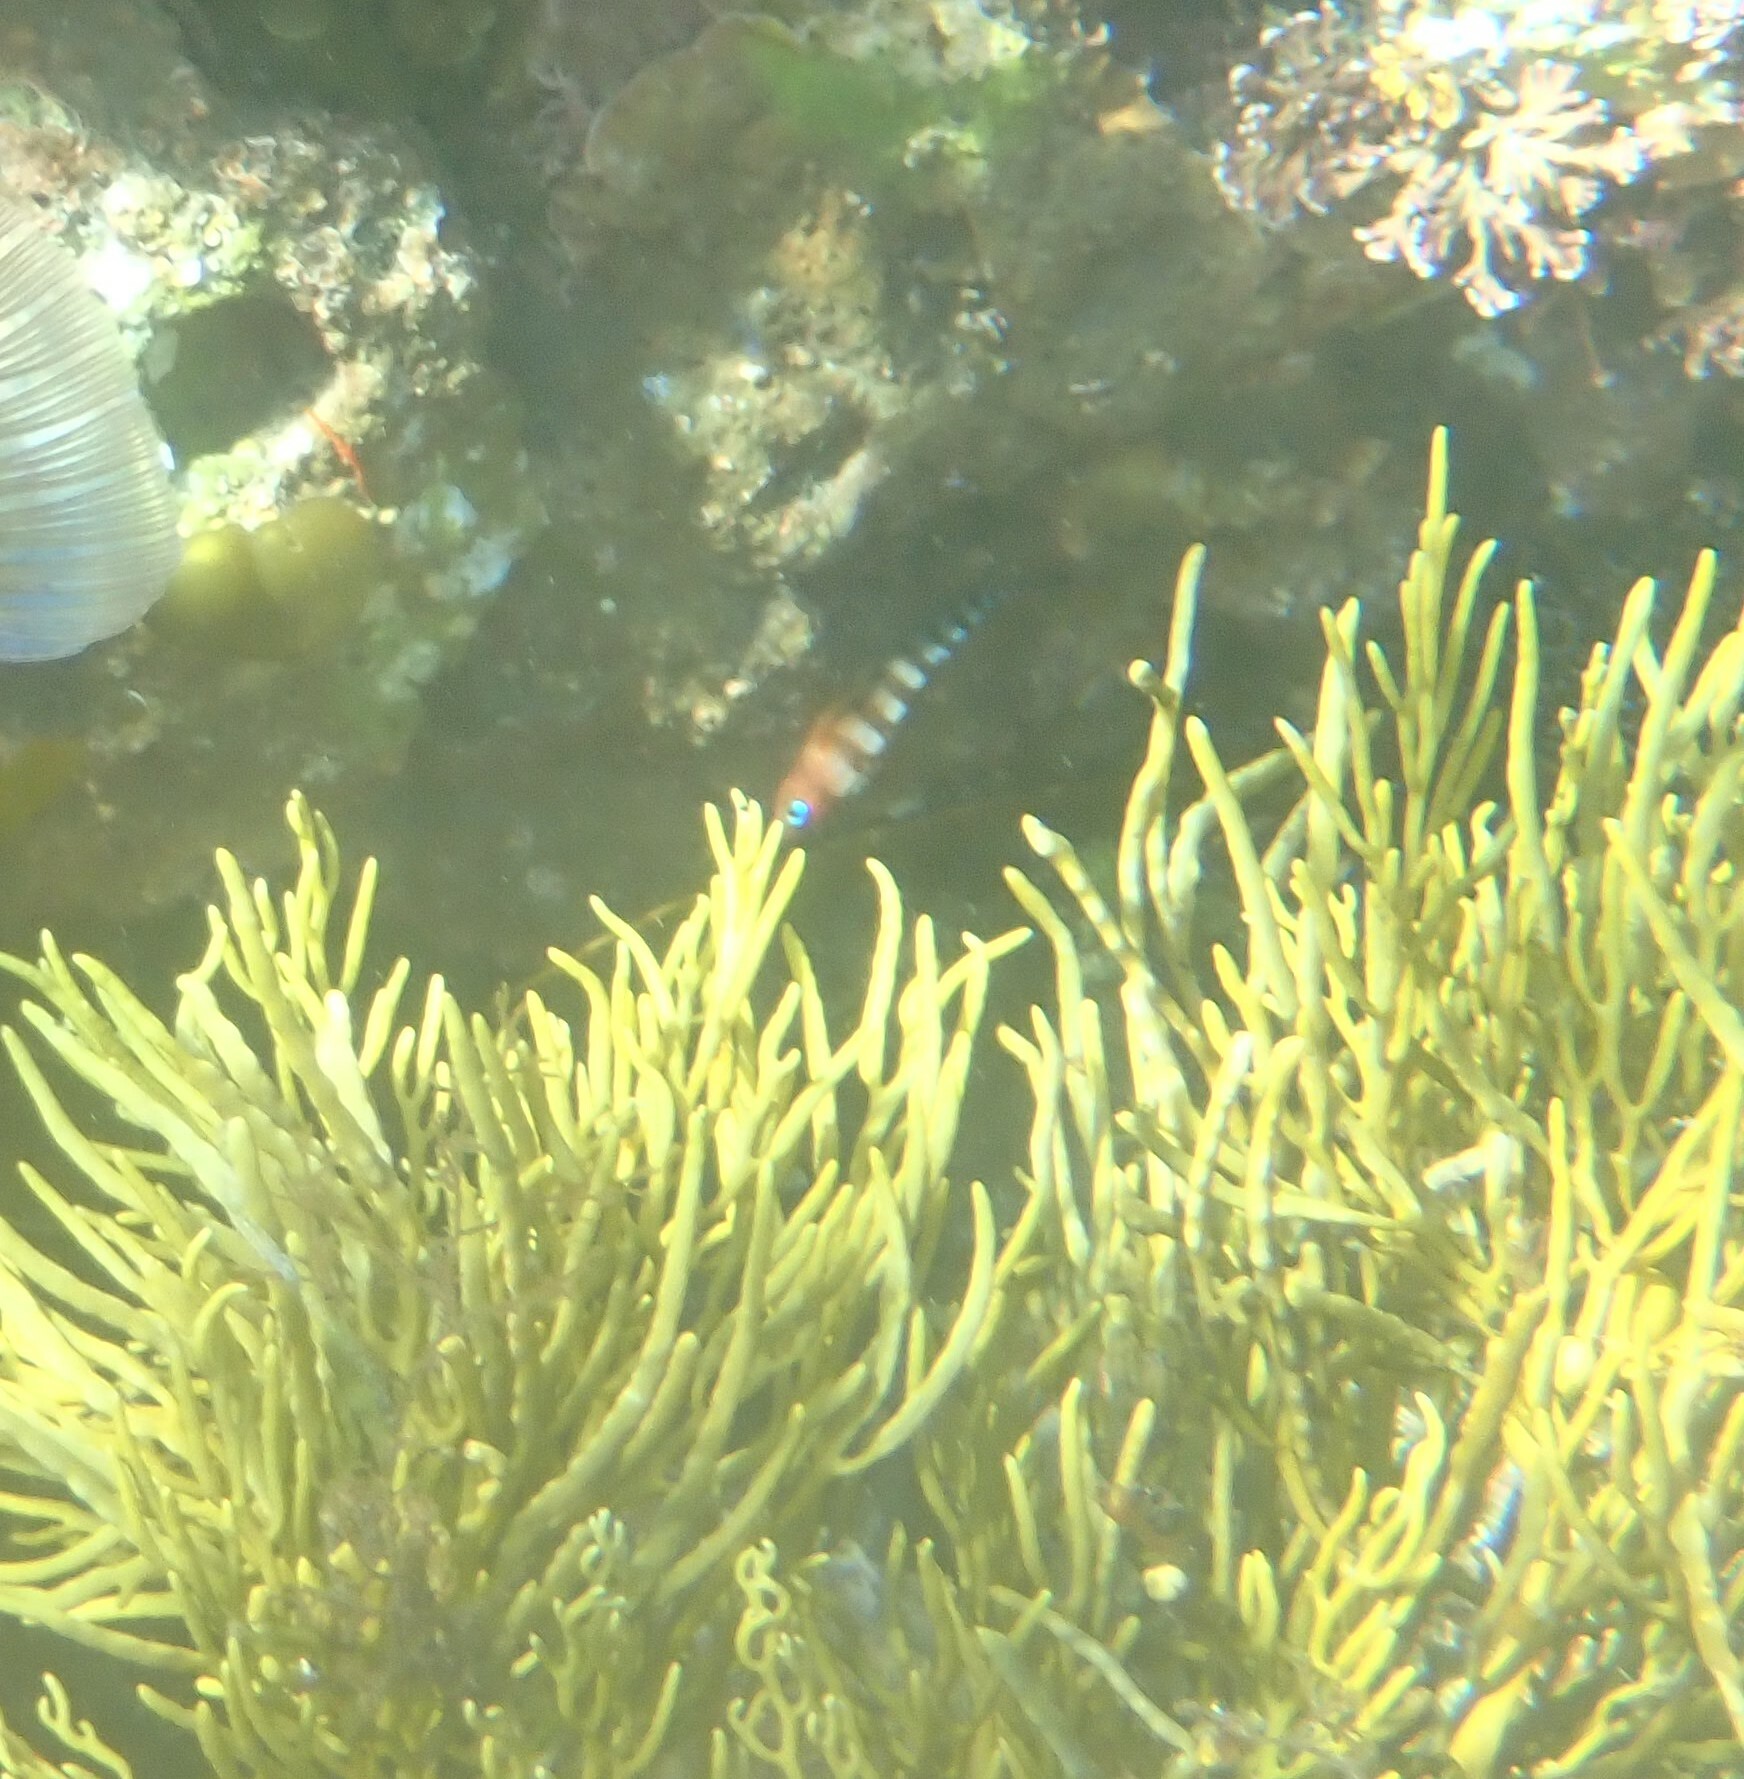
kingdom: Animalia
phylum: Chordata
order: Perciformes
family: Tripterygiidae
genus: Notoclinops
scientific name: Notoclinops segmentatus
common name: Blue-eyed triplefin
